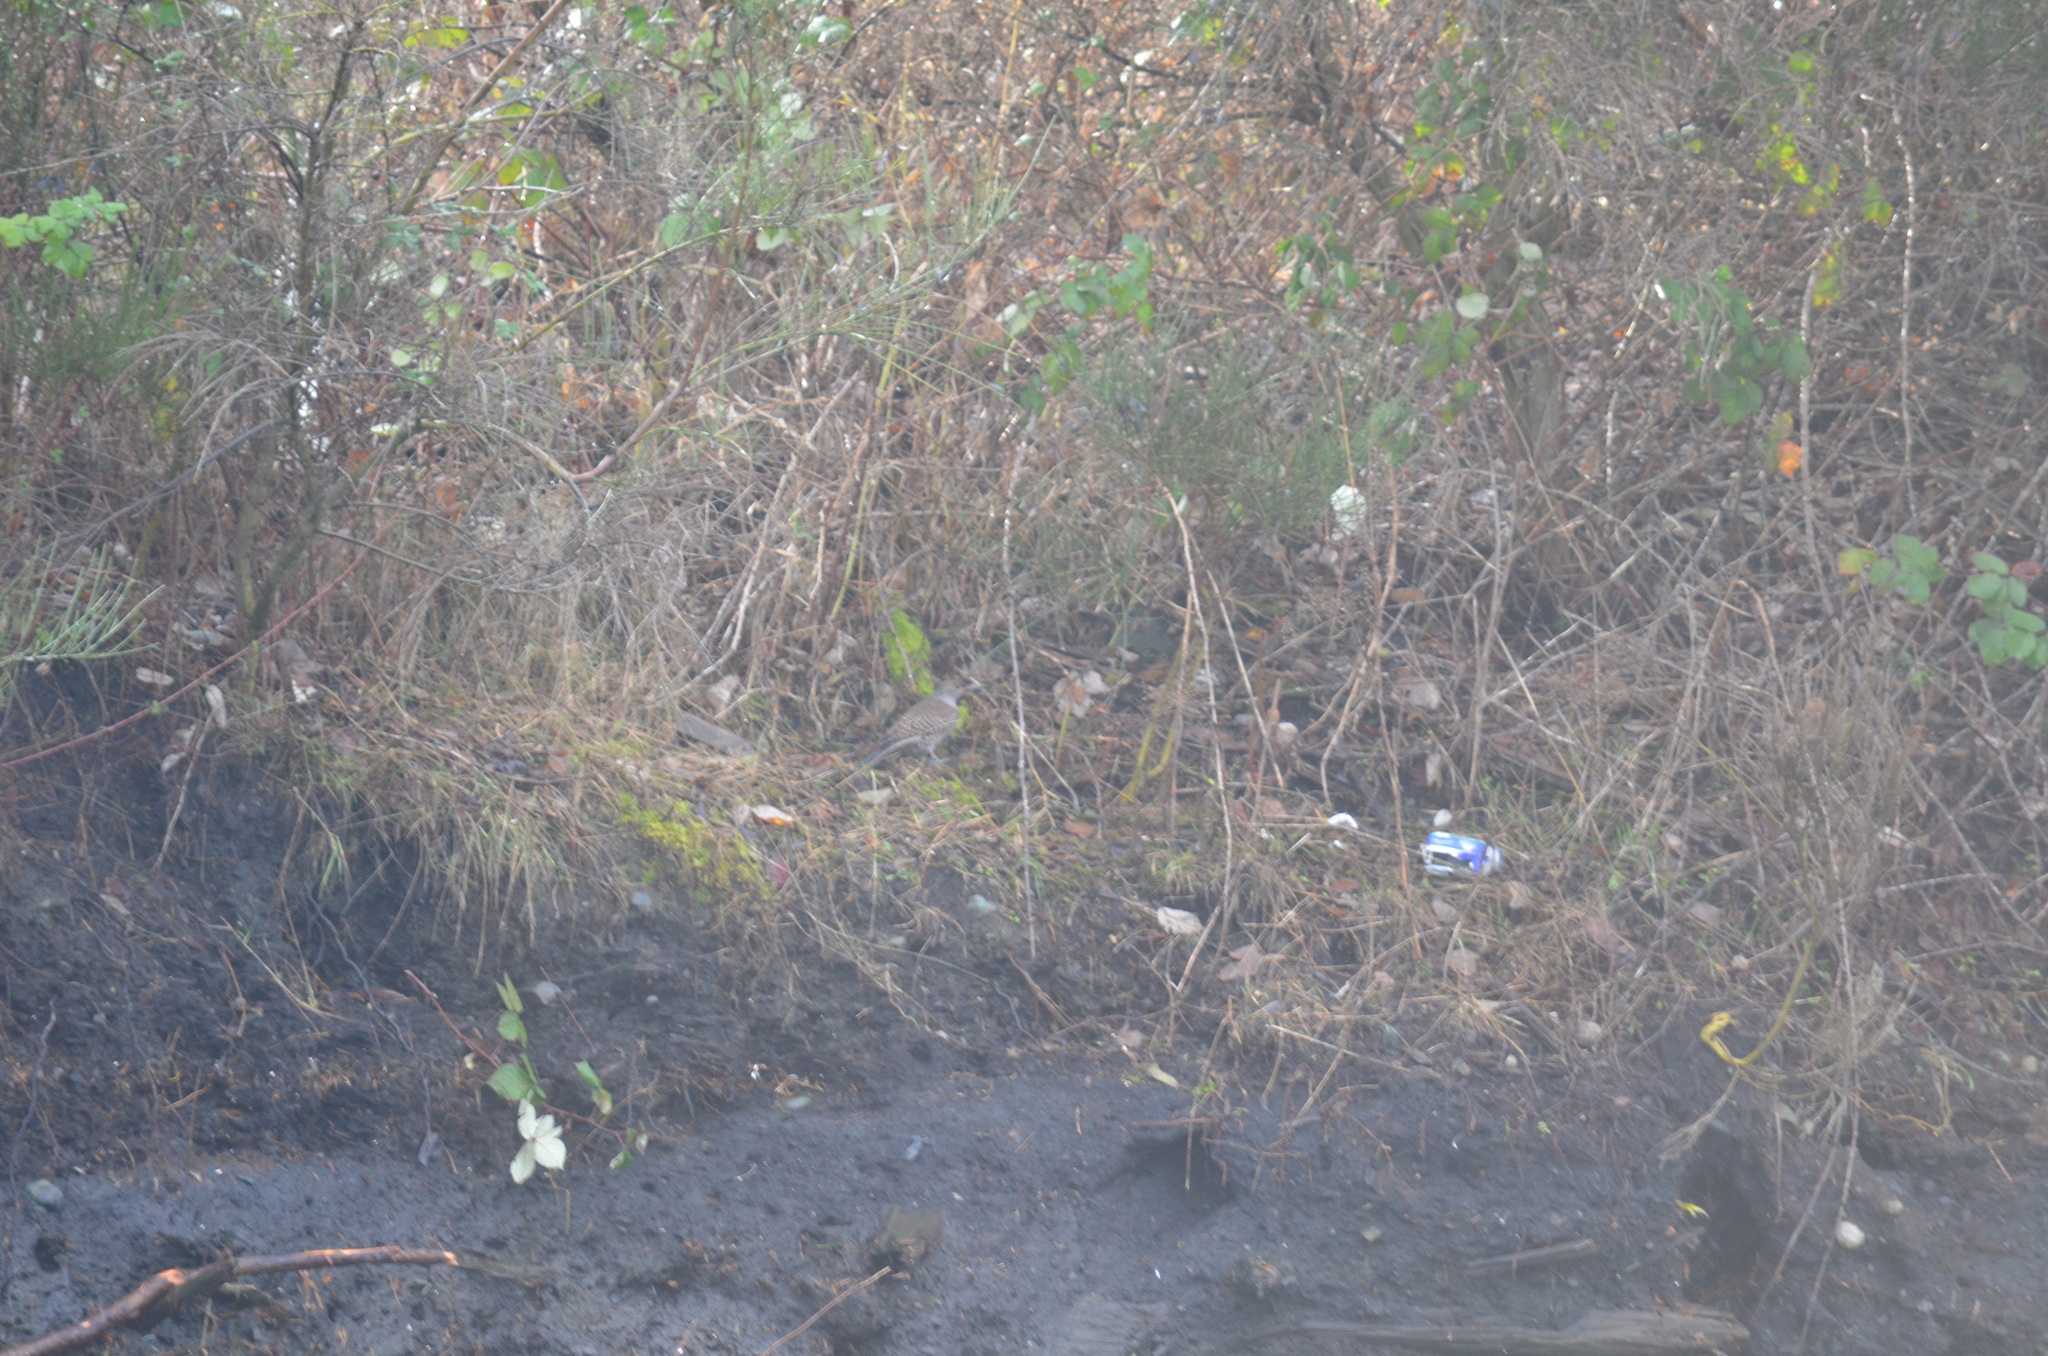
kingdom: Animalia
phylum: Chordata
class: Aves
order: Piciformes
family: Picidae
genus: Colaptes
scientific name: Colaptes auratus
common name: Northern flicker
